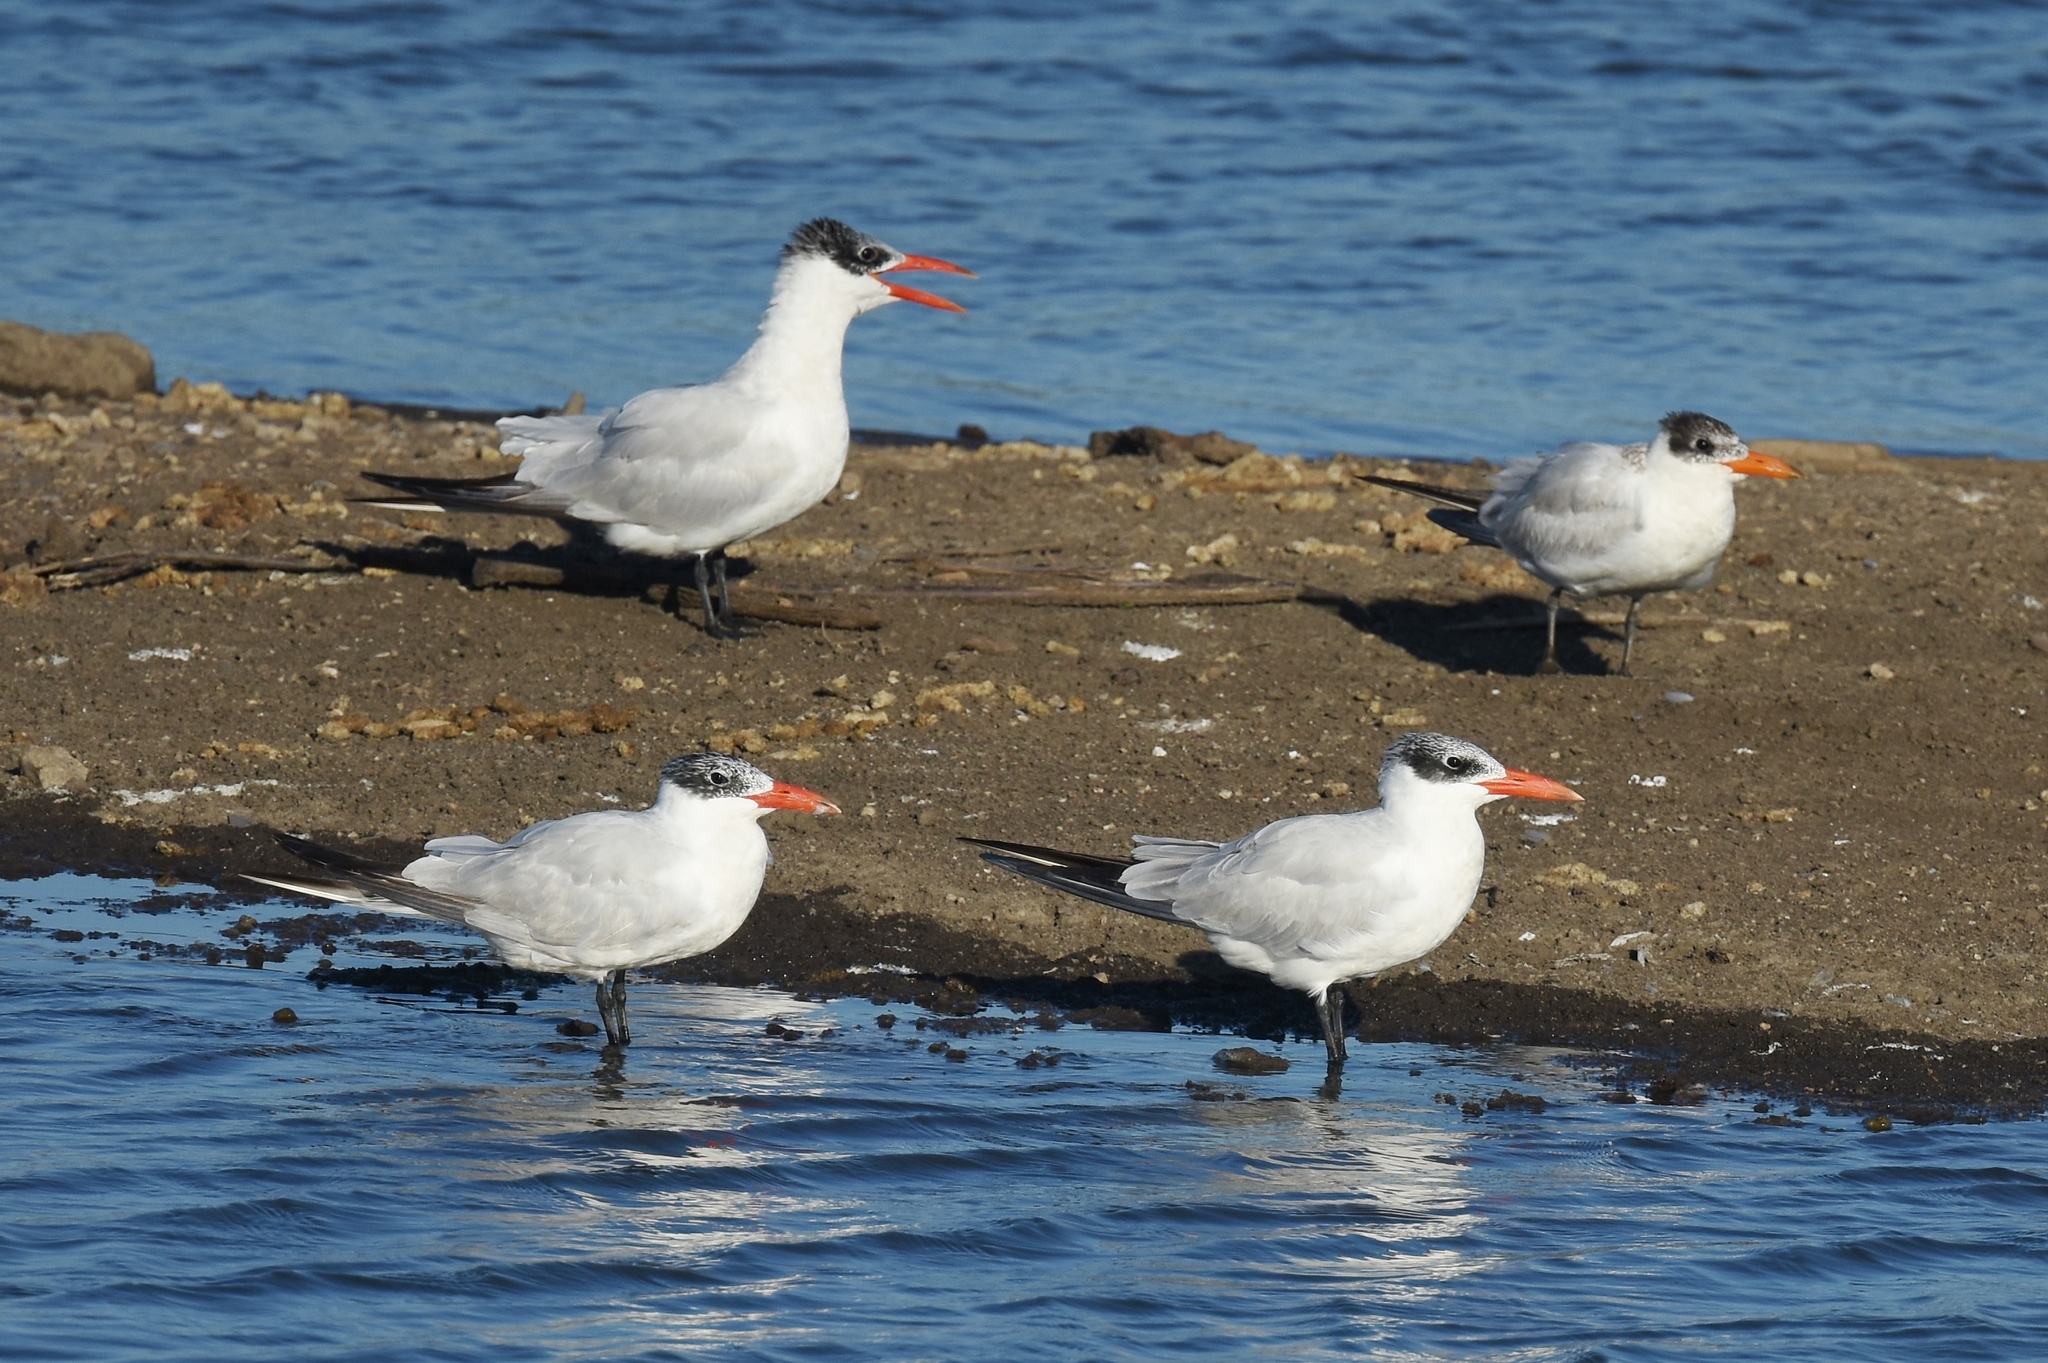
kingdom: Animalia
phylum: Chordata
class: Aves
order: Charadriiformes
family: Laridae
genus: Hydroprogne
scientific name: Hydroprogne caspia
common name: Caspian tern
